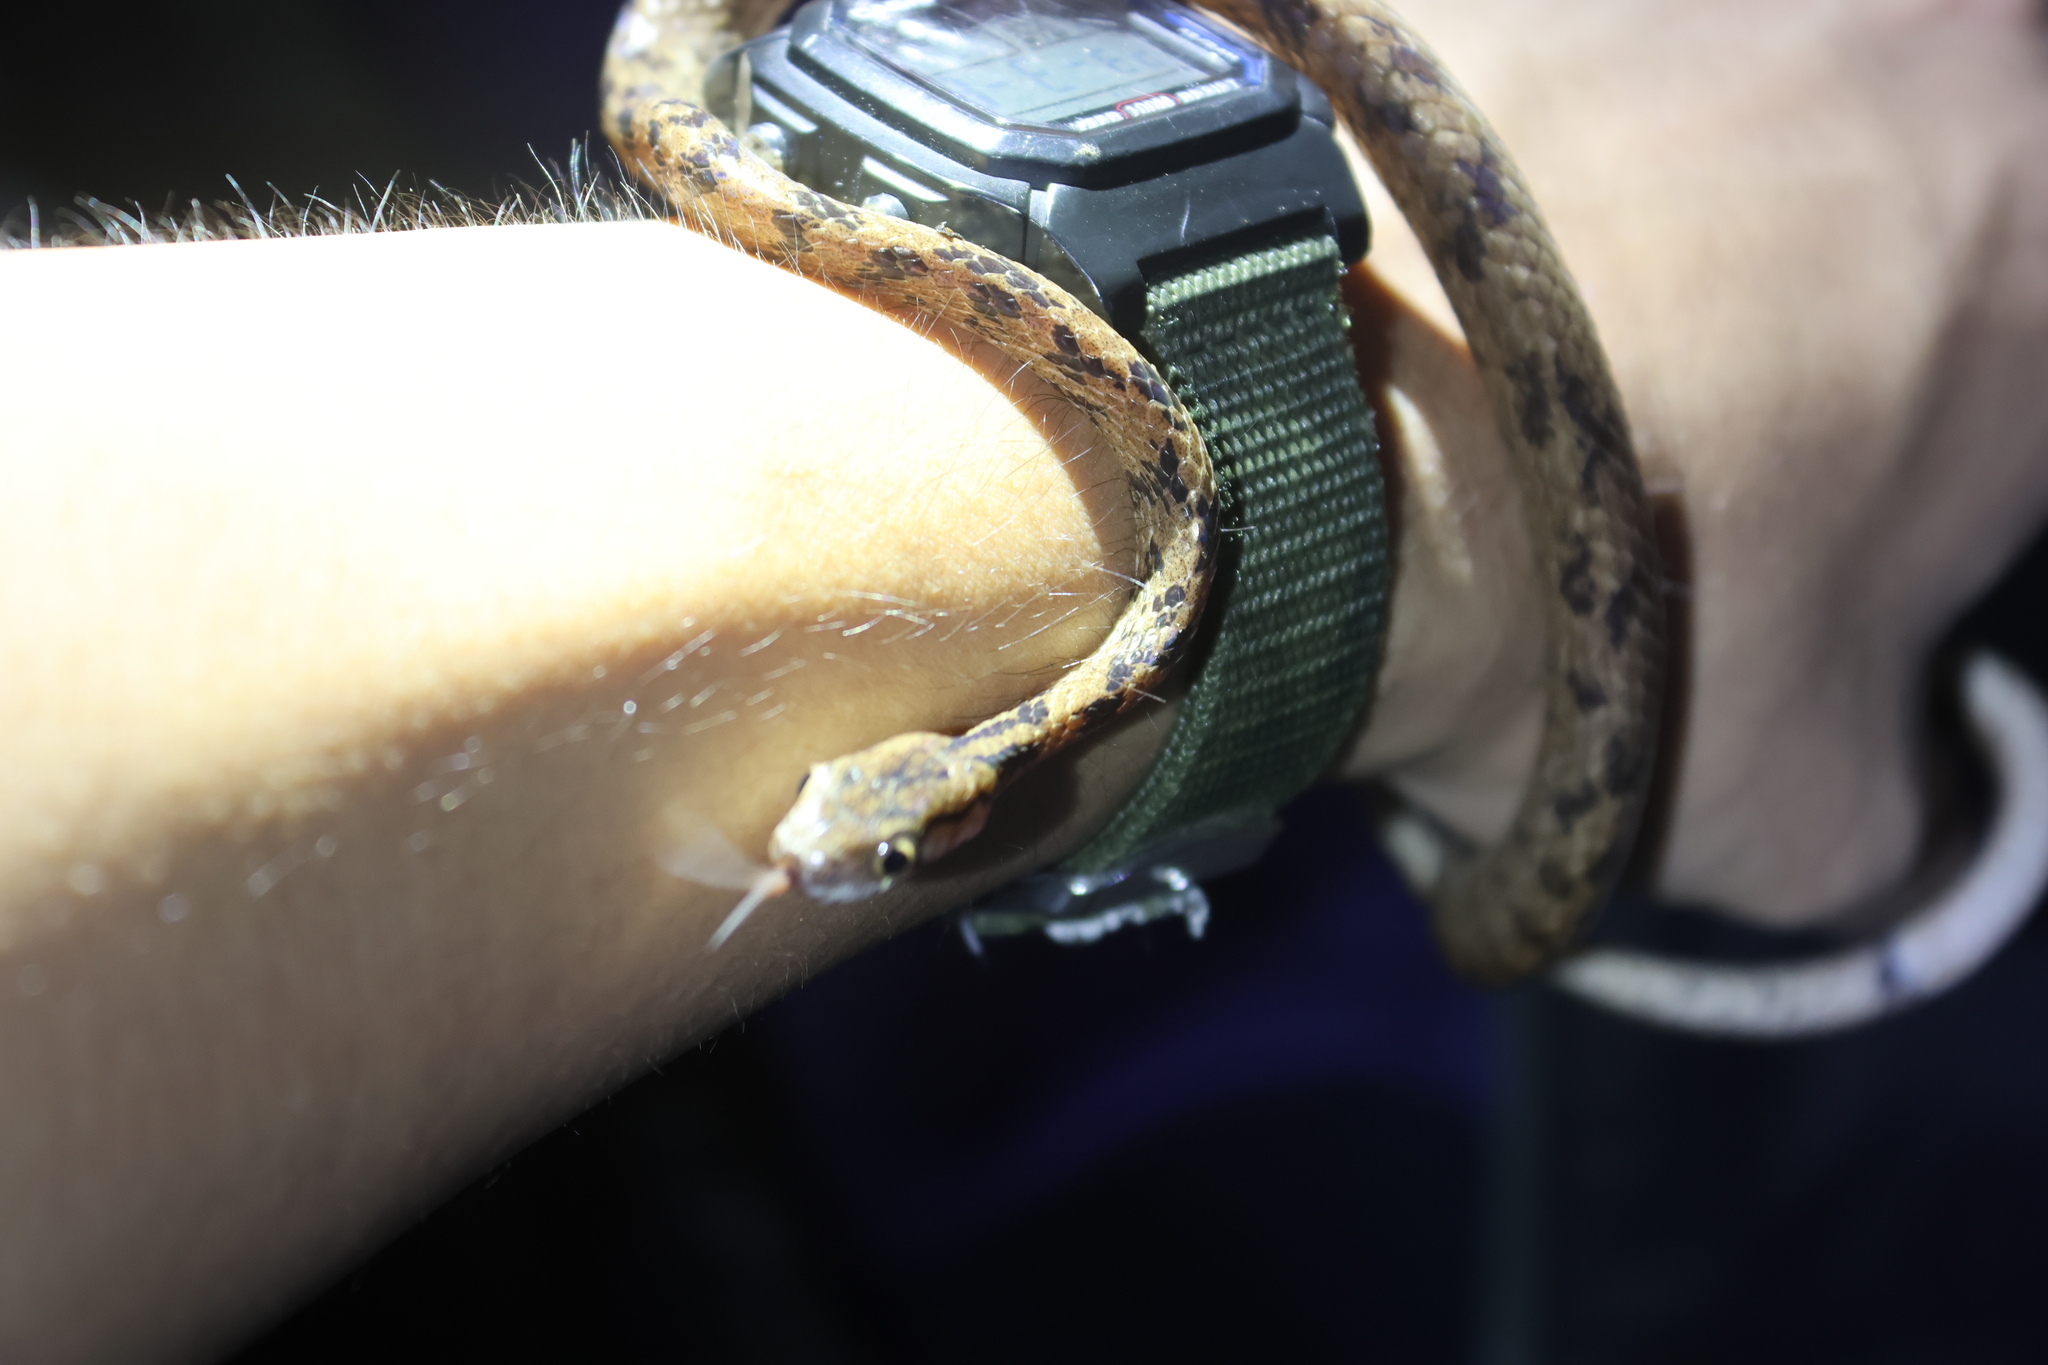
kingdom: Animalia
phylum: Chordata
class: Squamata
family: Pareidae
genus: Pareas
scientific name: Pareas komaii
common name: Formosa slug snake
